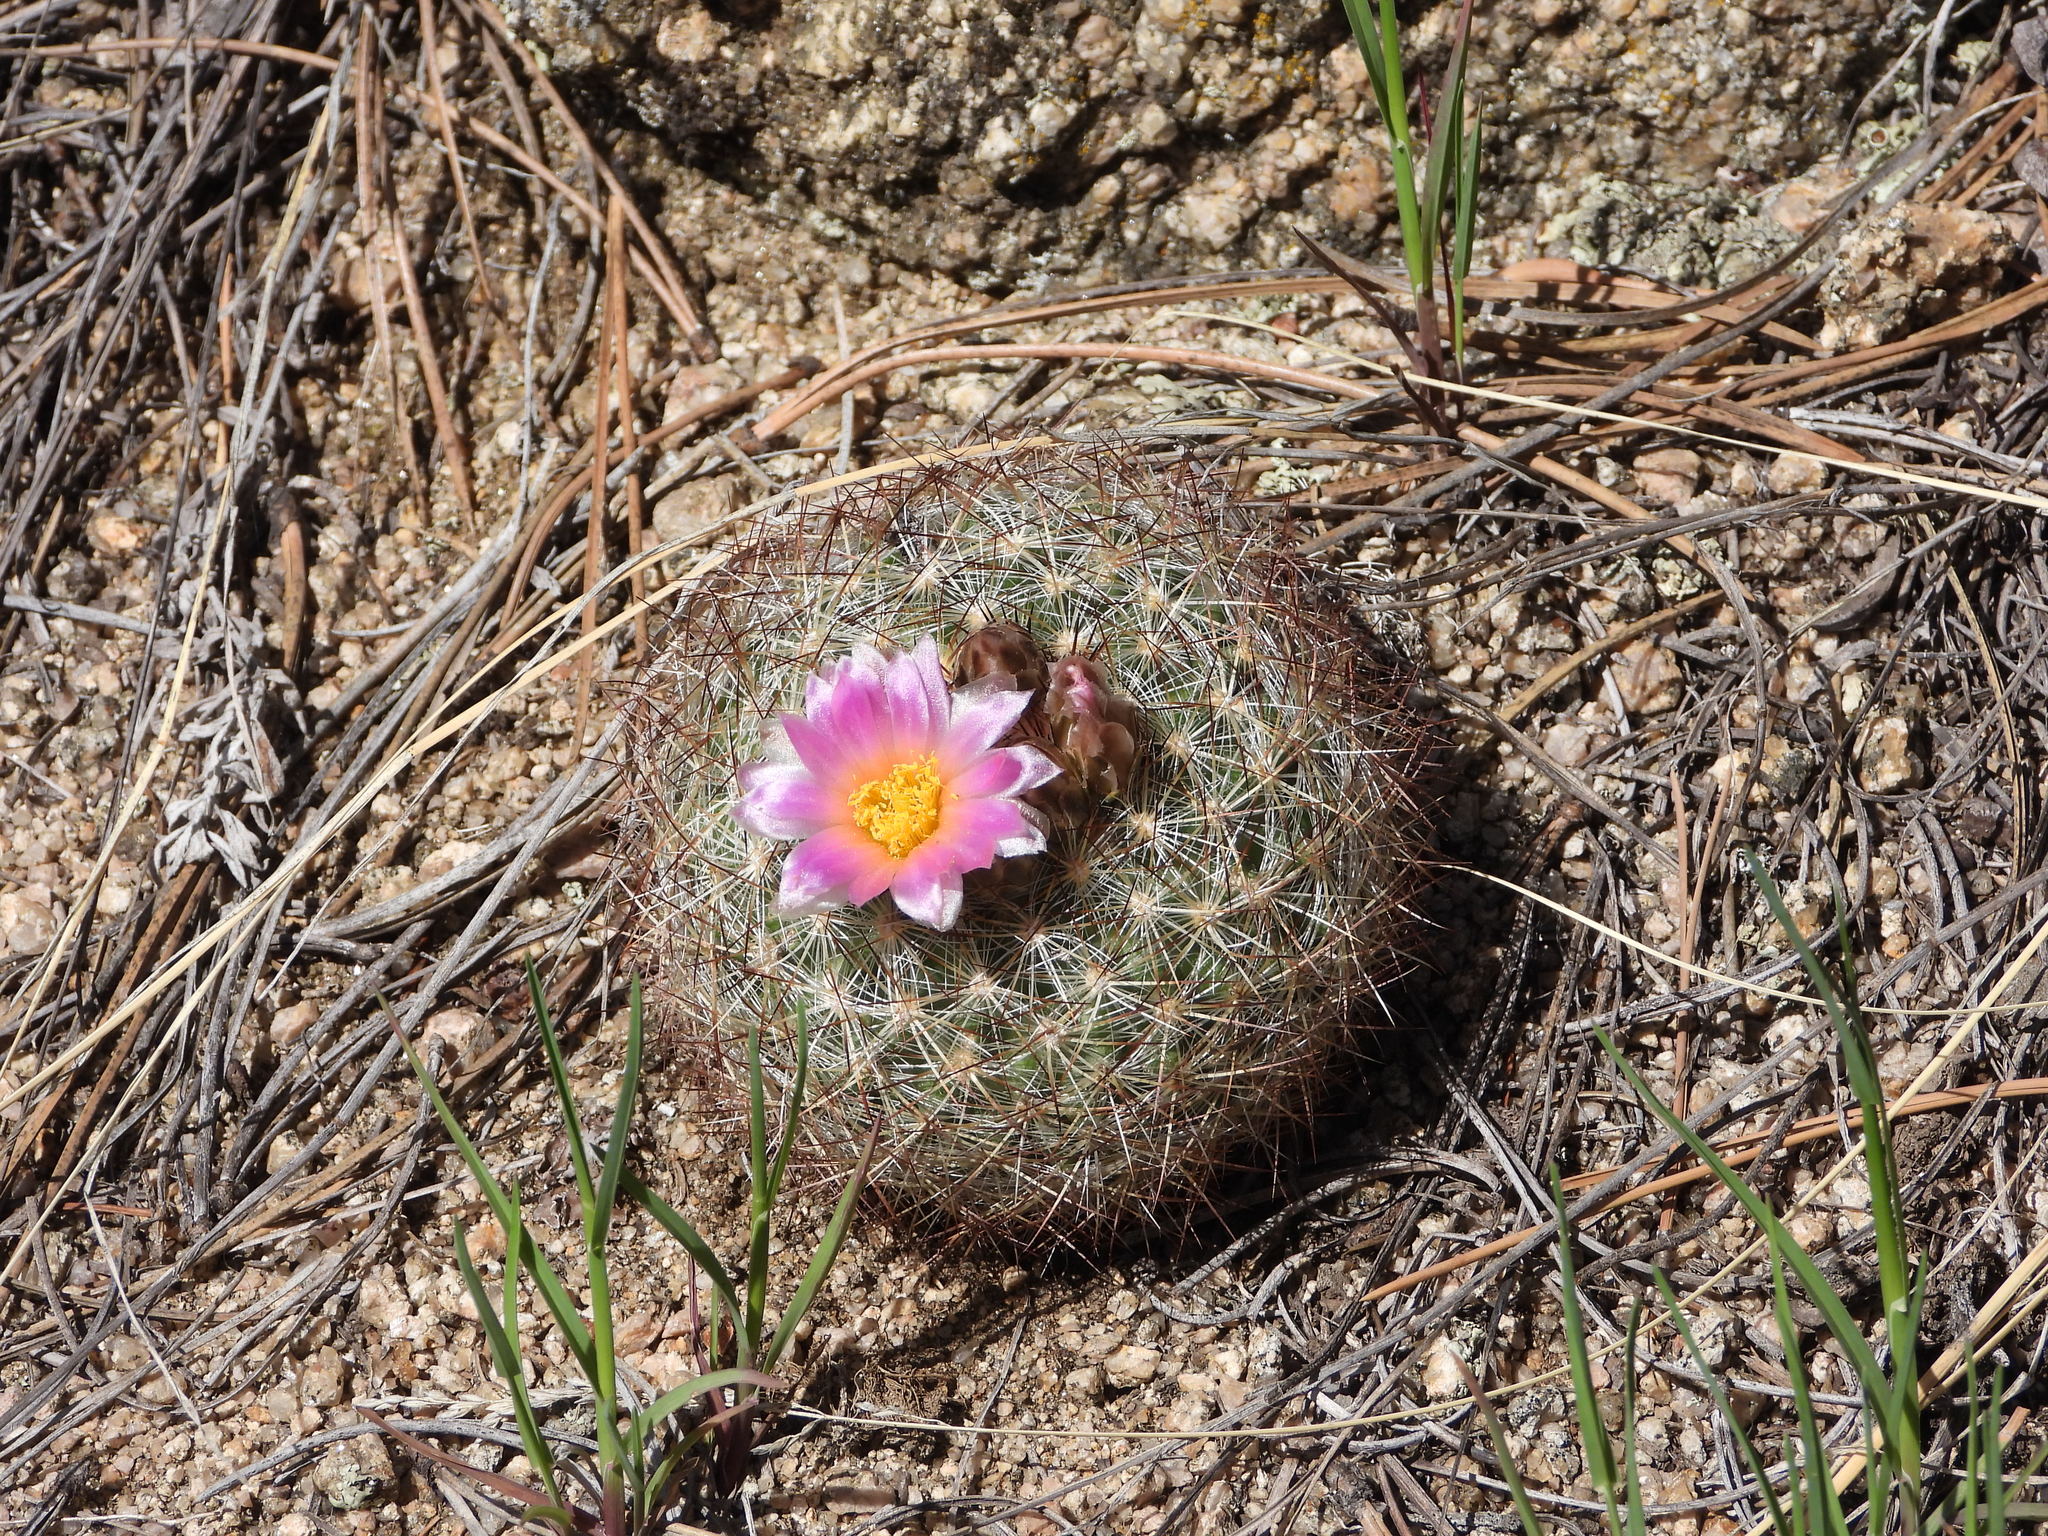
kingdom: Plantae
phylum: Tracheophyta
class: Magnoliopsida
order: Caryophyllales
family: Cactaceae
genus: Pediocactus
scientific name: Pediocactus simpsonii
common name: Simpson's hedgehog cactus
